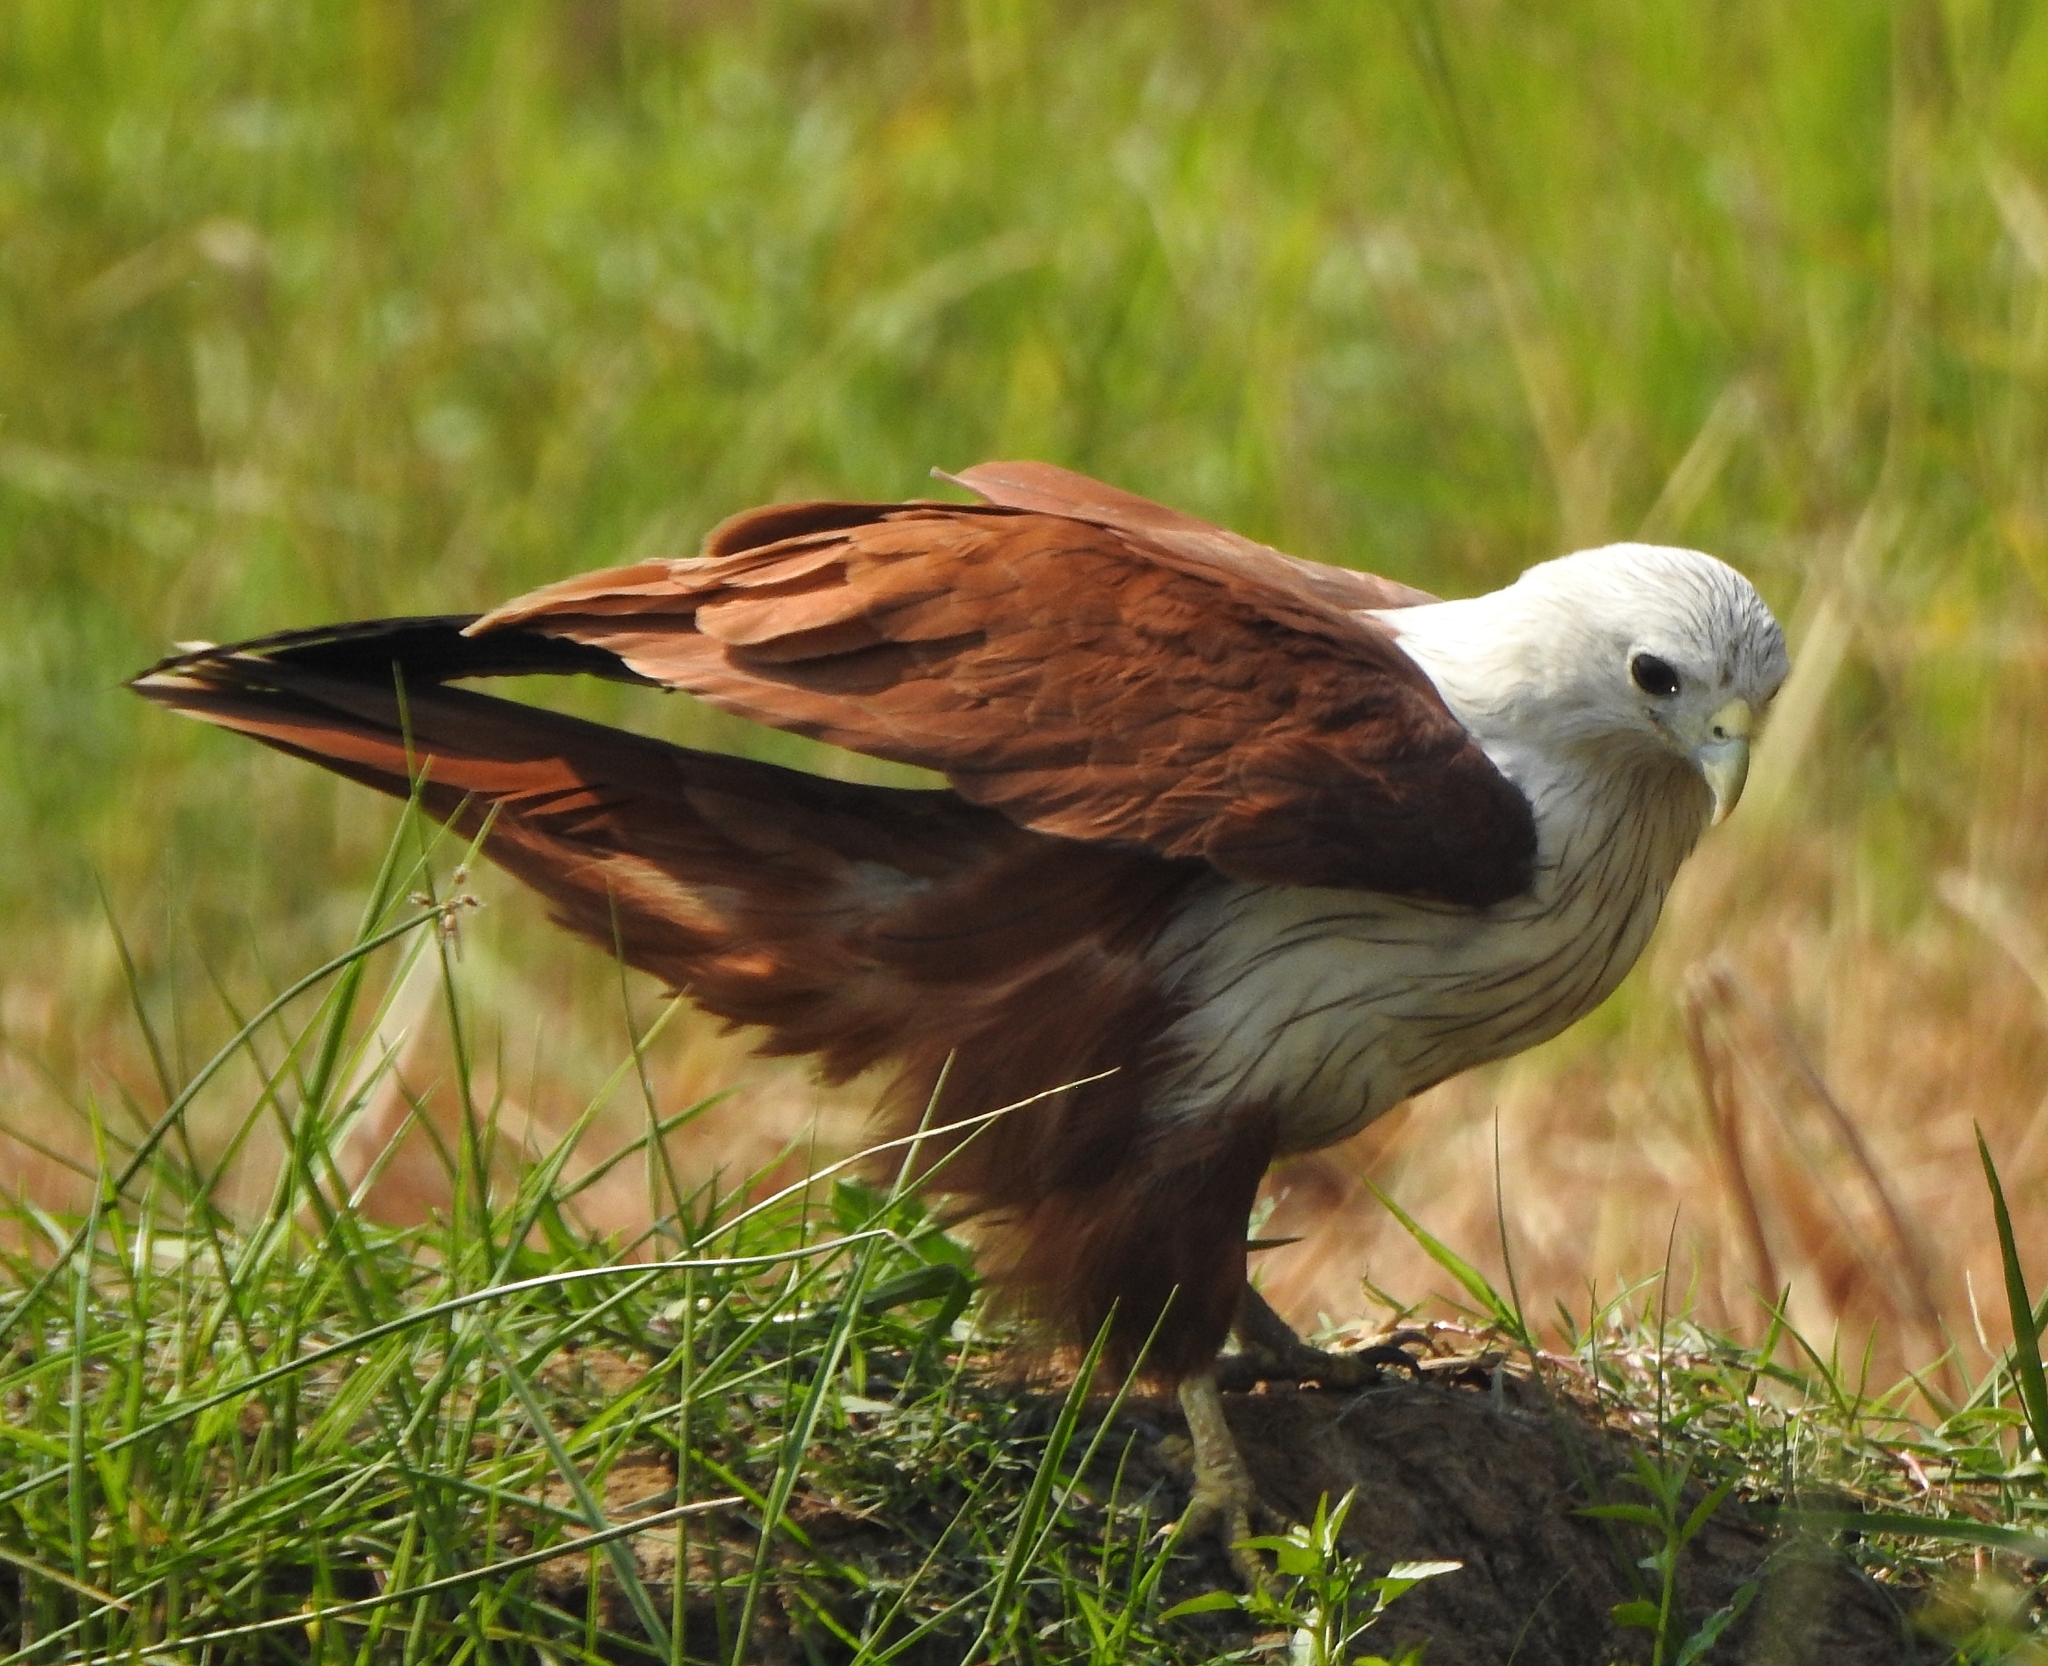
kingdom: Animalia
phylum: Chordata
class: Aves
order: Accipitriformes
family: Accipitridae
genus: Haliastur
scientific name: Haliastur indus
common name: Brahminy kite
